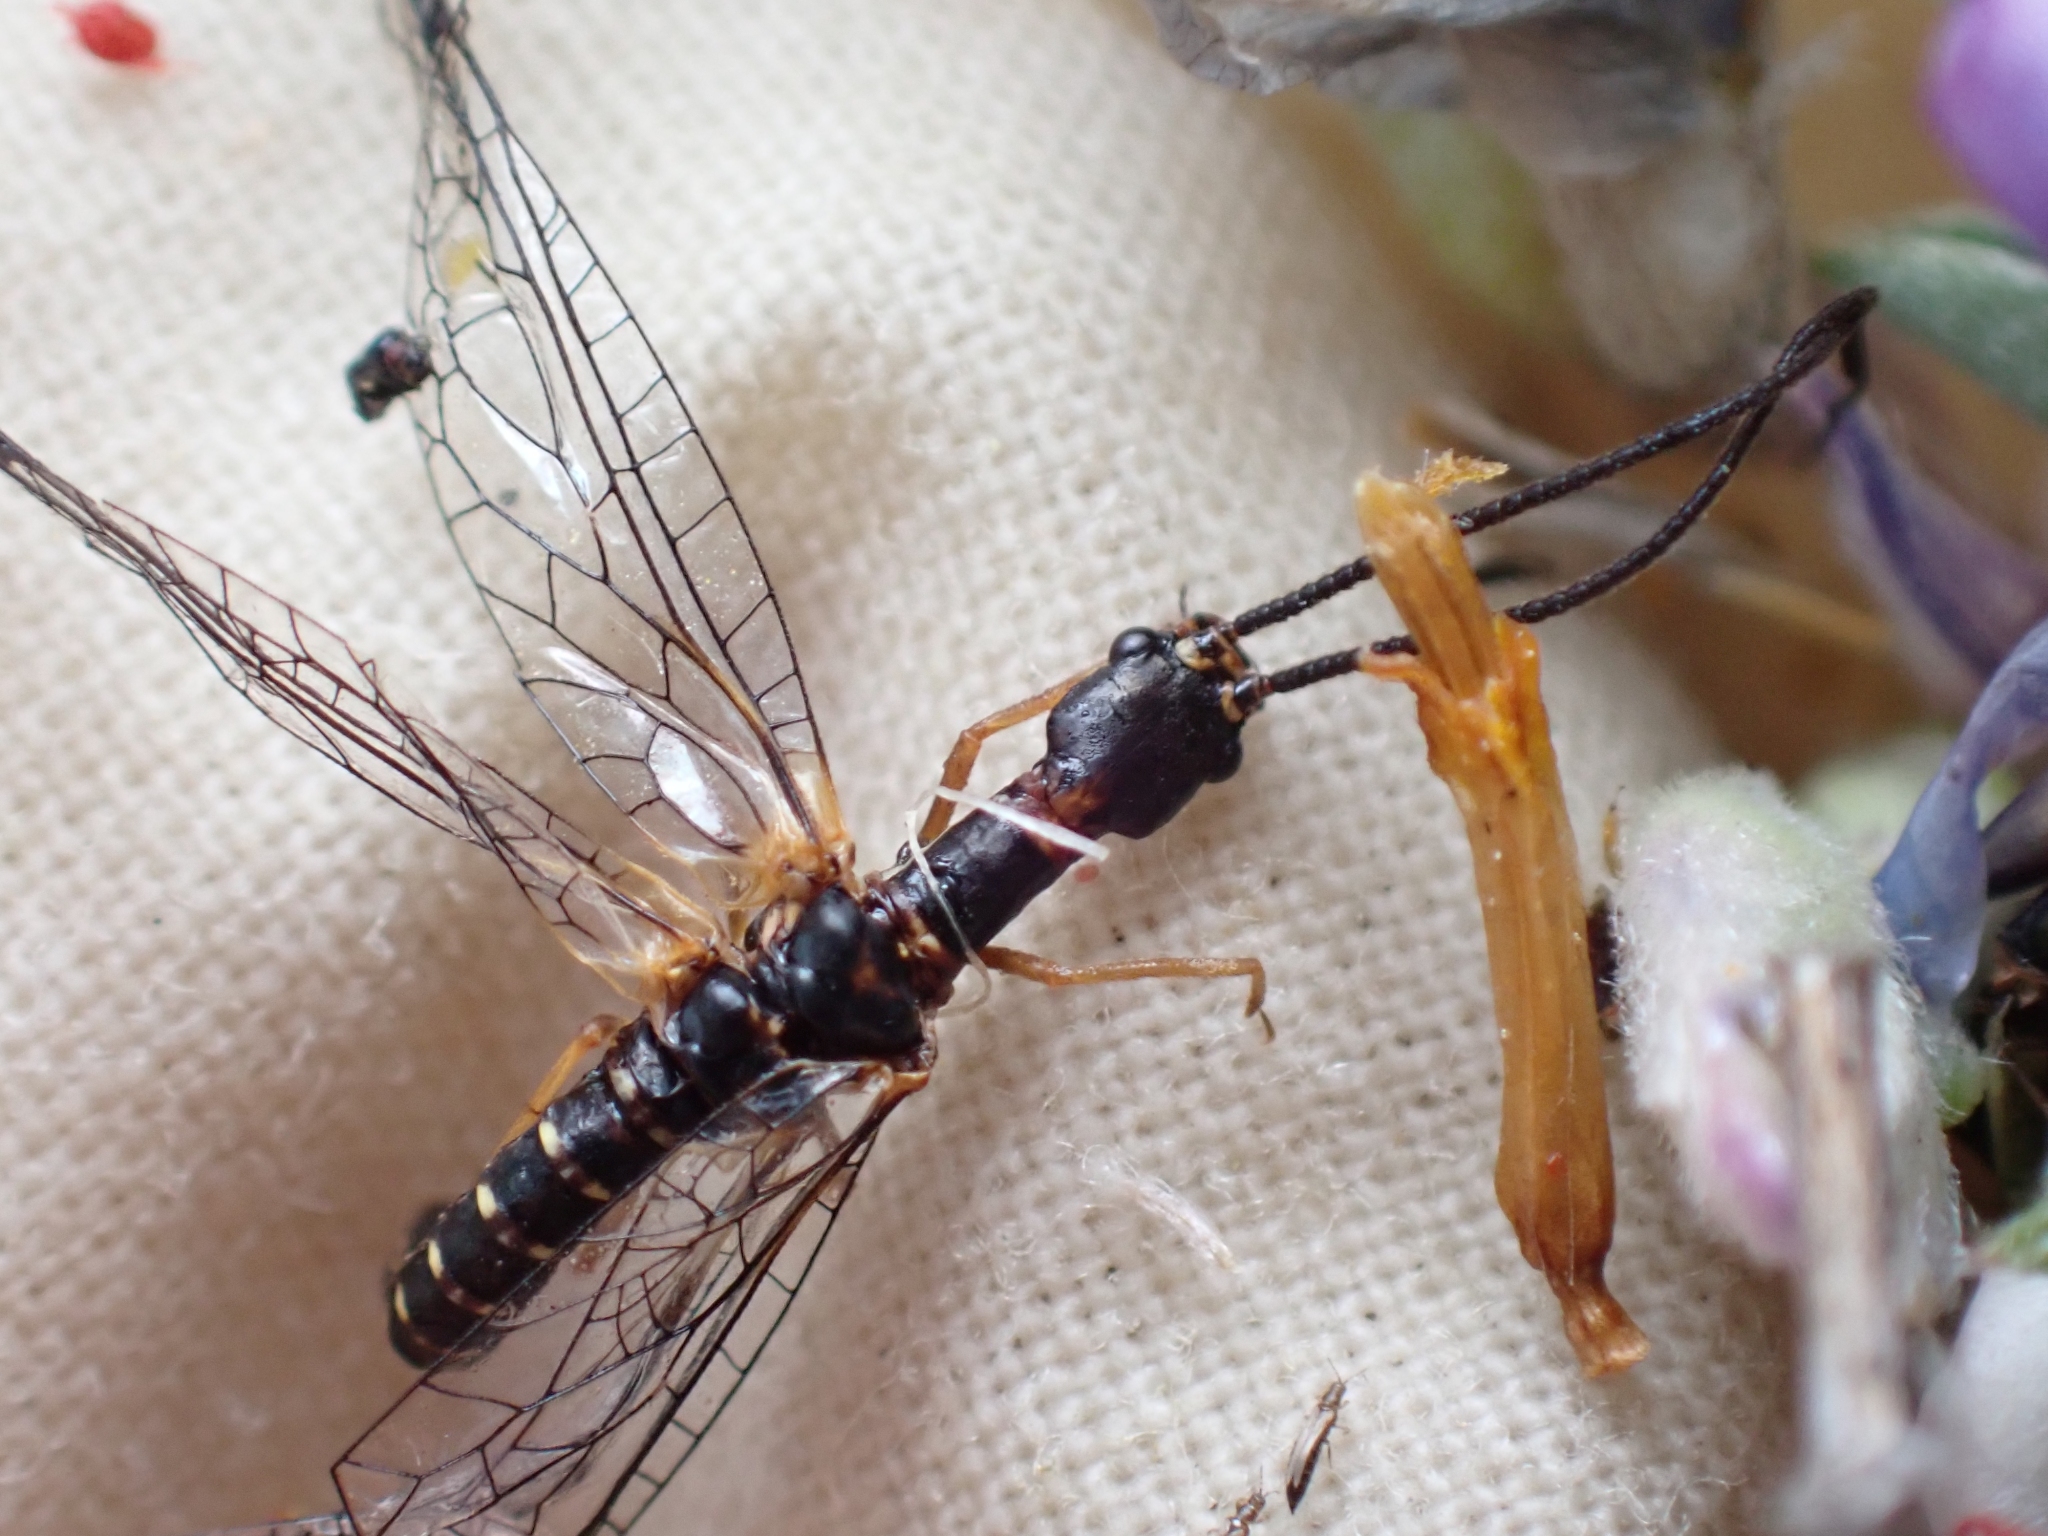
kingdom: Animalia
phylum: Arthropoda
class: Insecta
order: Raphidioptera
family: Inocelliidae
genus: Negha
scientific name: Negha inflata
